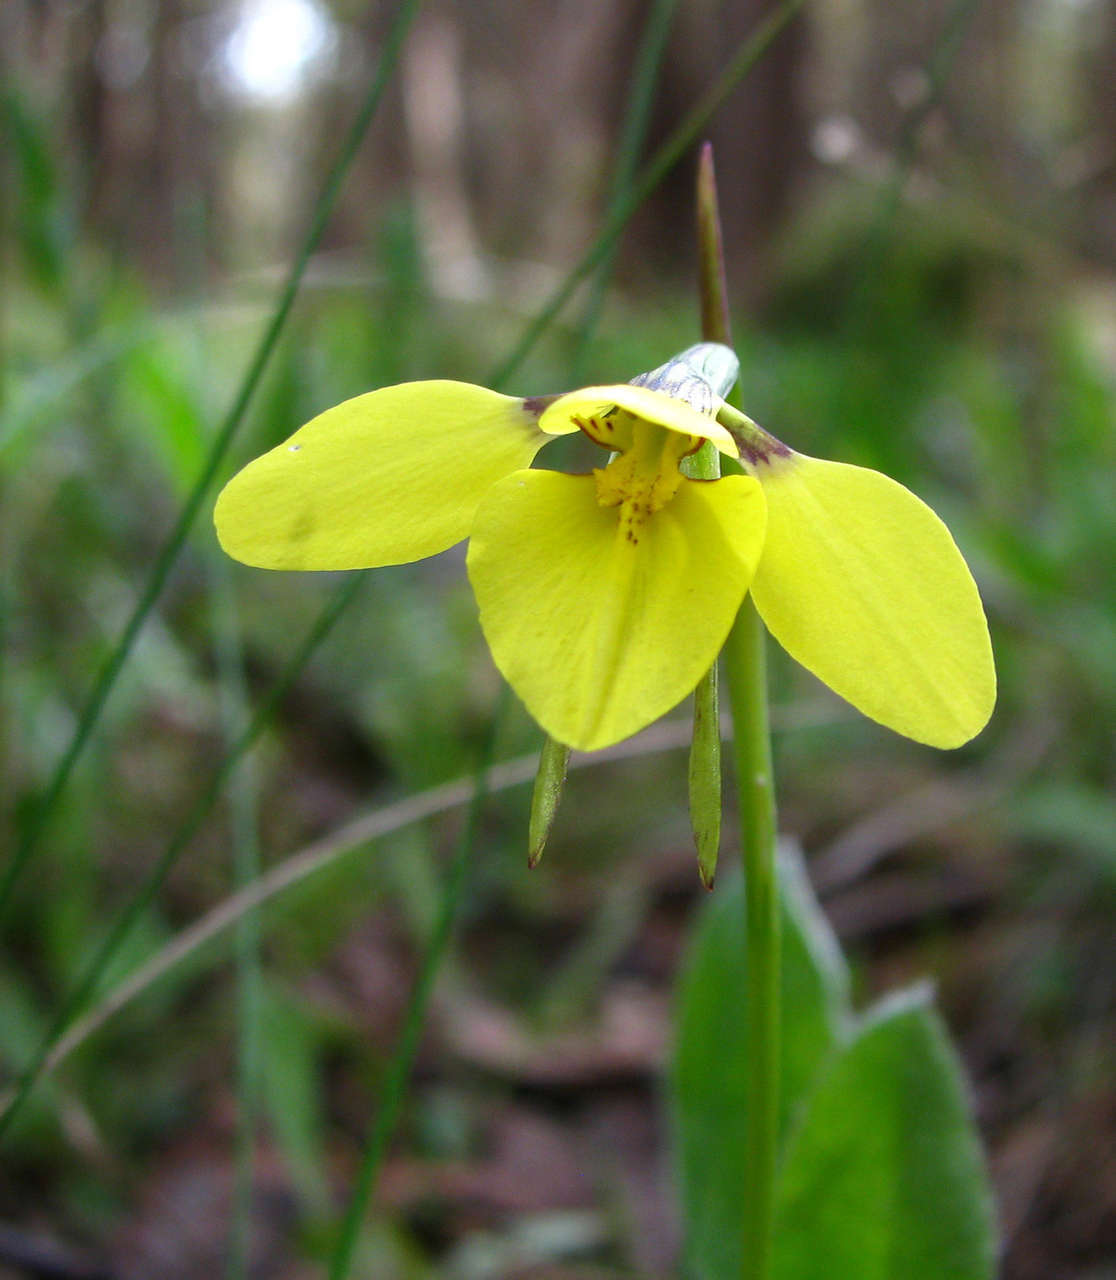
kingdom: Plantae
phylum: Tracheophyta
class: Liliopsida
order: Asparagales
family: Orchidaceae
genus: Diuris
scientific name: Diuris chryseopsis
